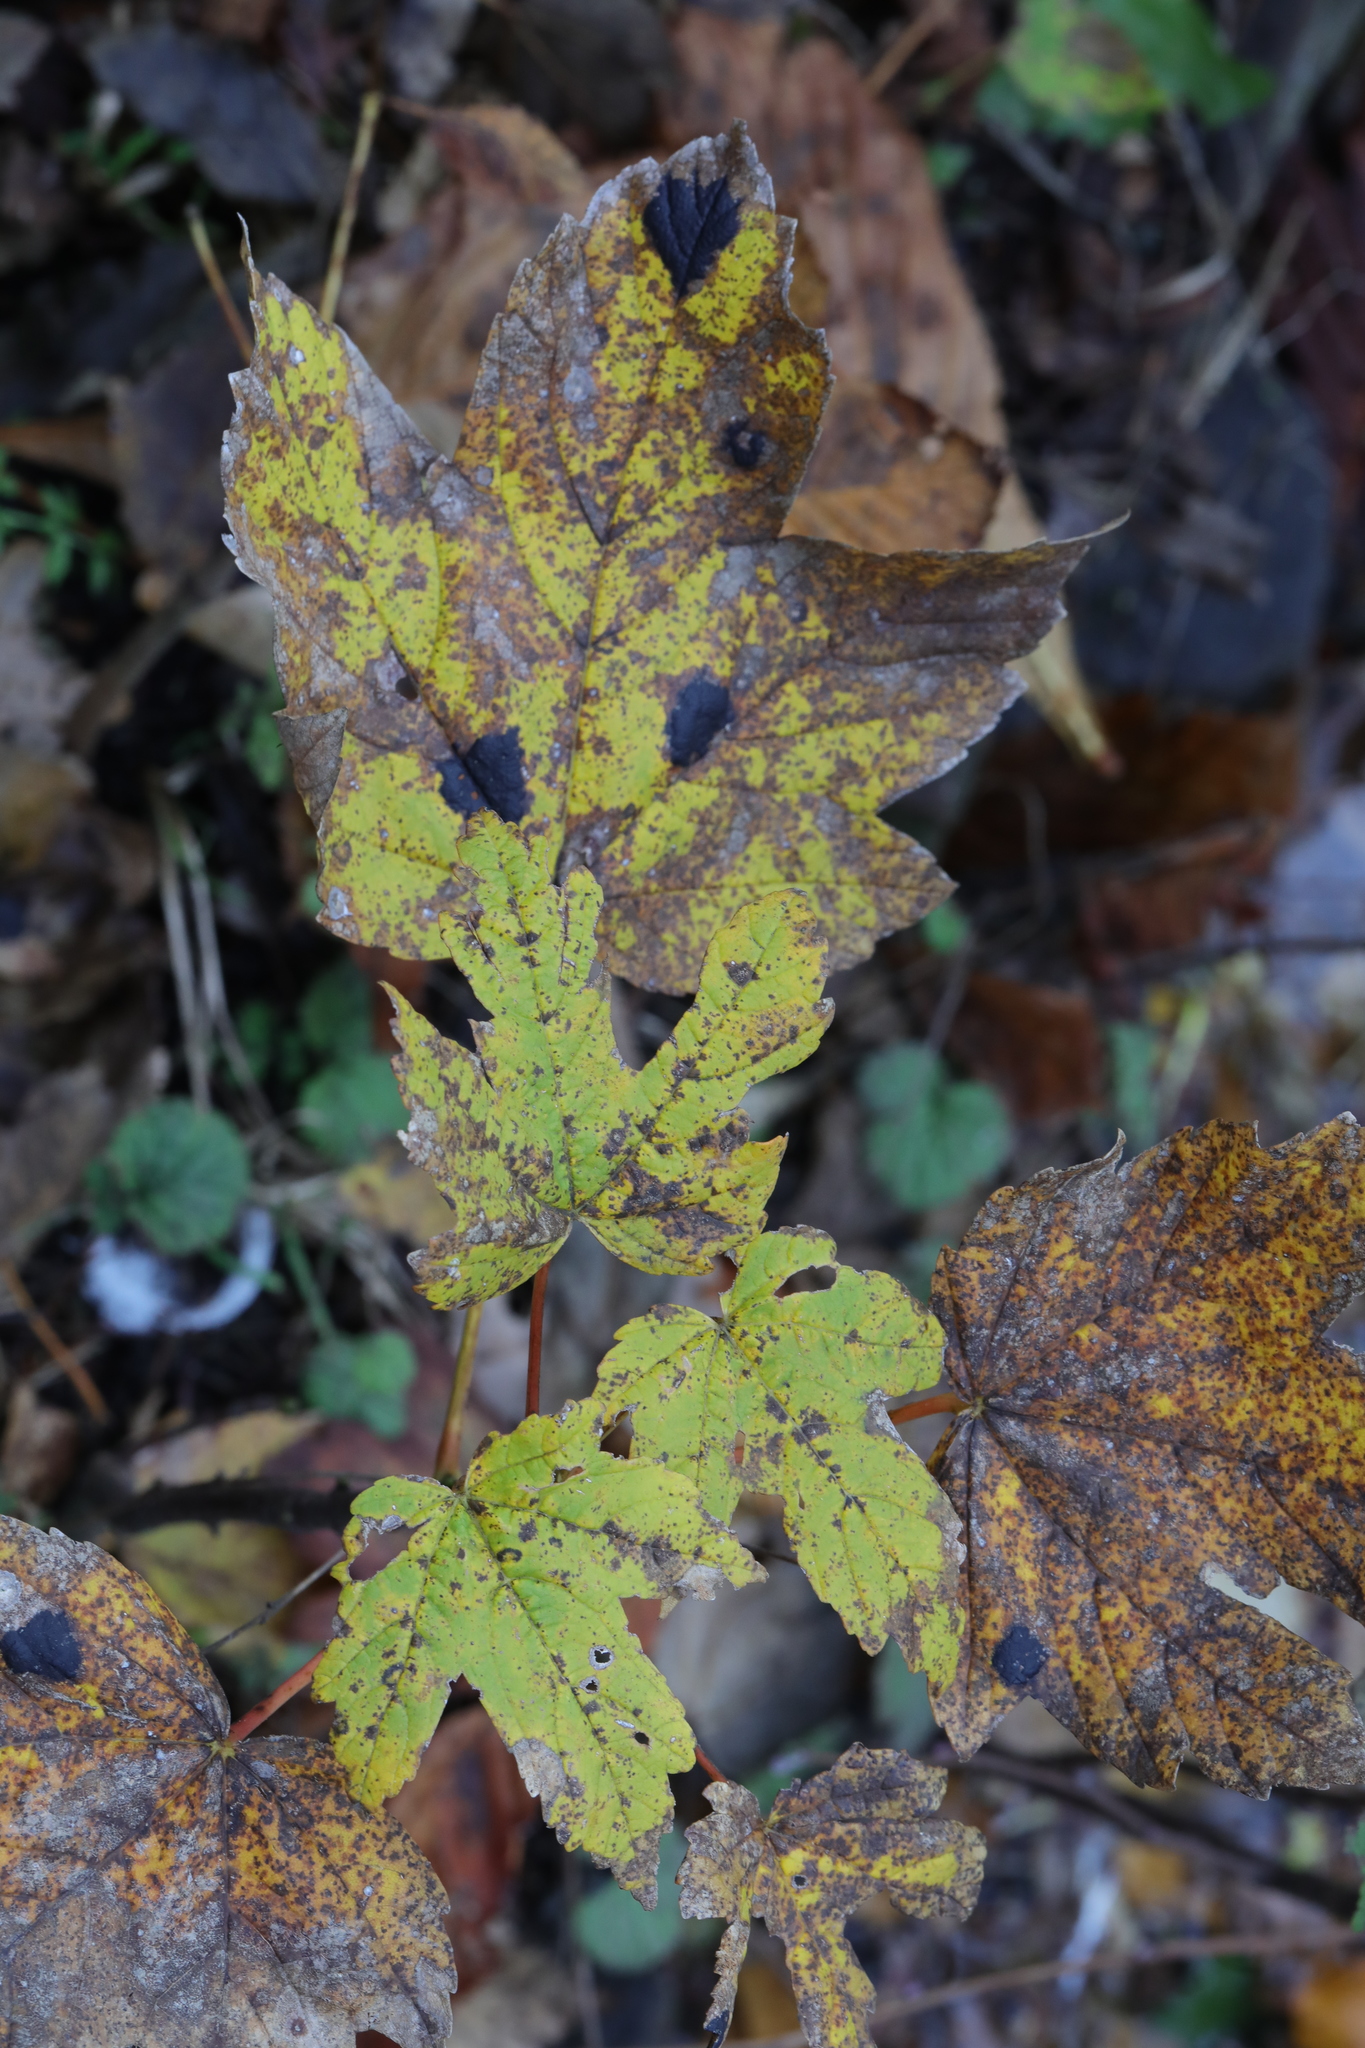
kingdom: Fungi
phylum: Ascomycota
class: Leotiomycetes
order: Rhytismatales
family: Rhytismataceae
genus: Rhytisma
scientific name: Rhytisma acerinum
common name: European tar spot
